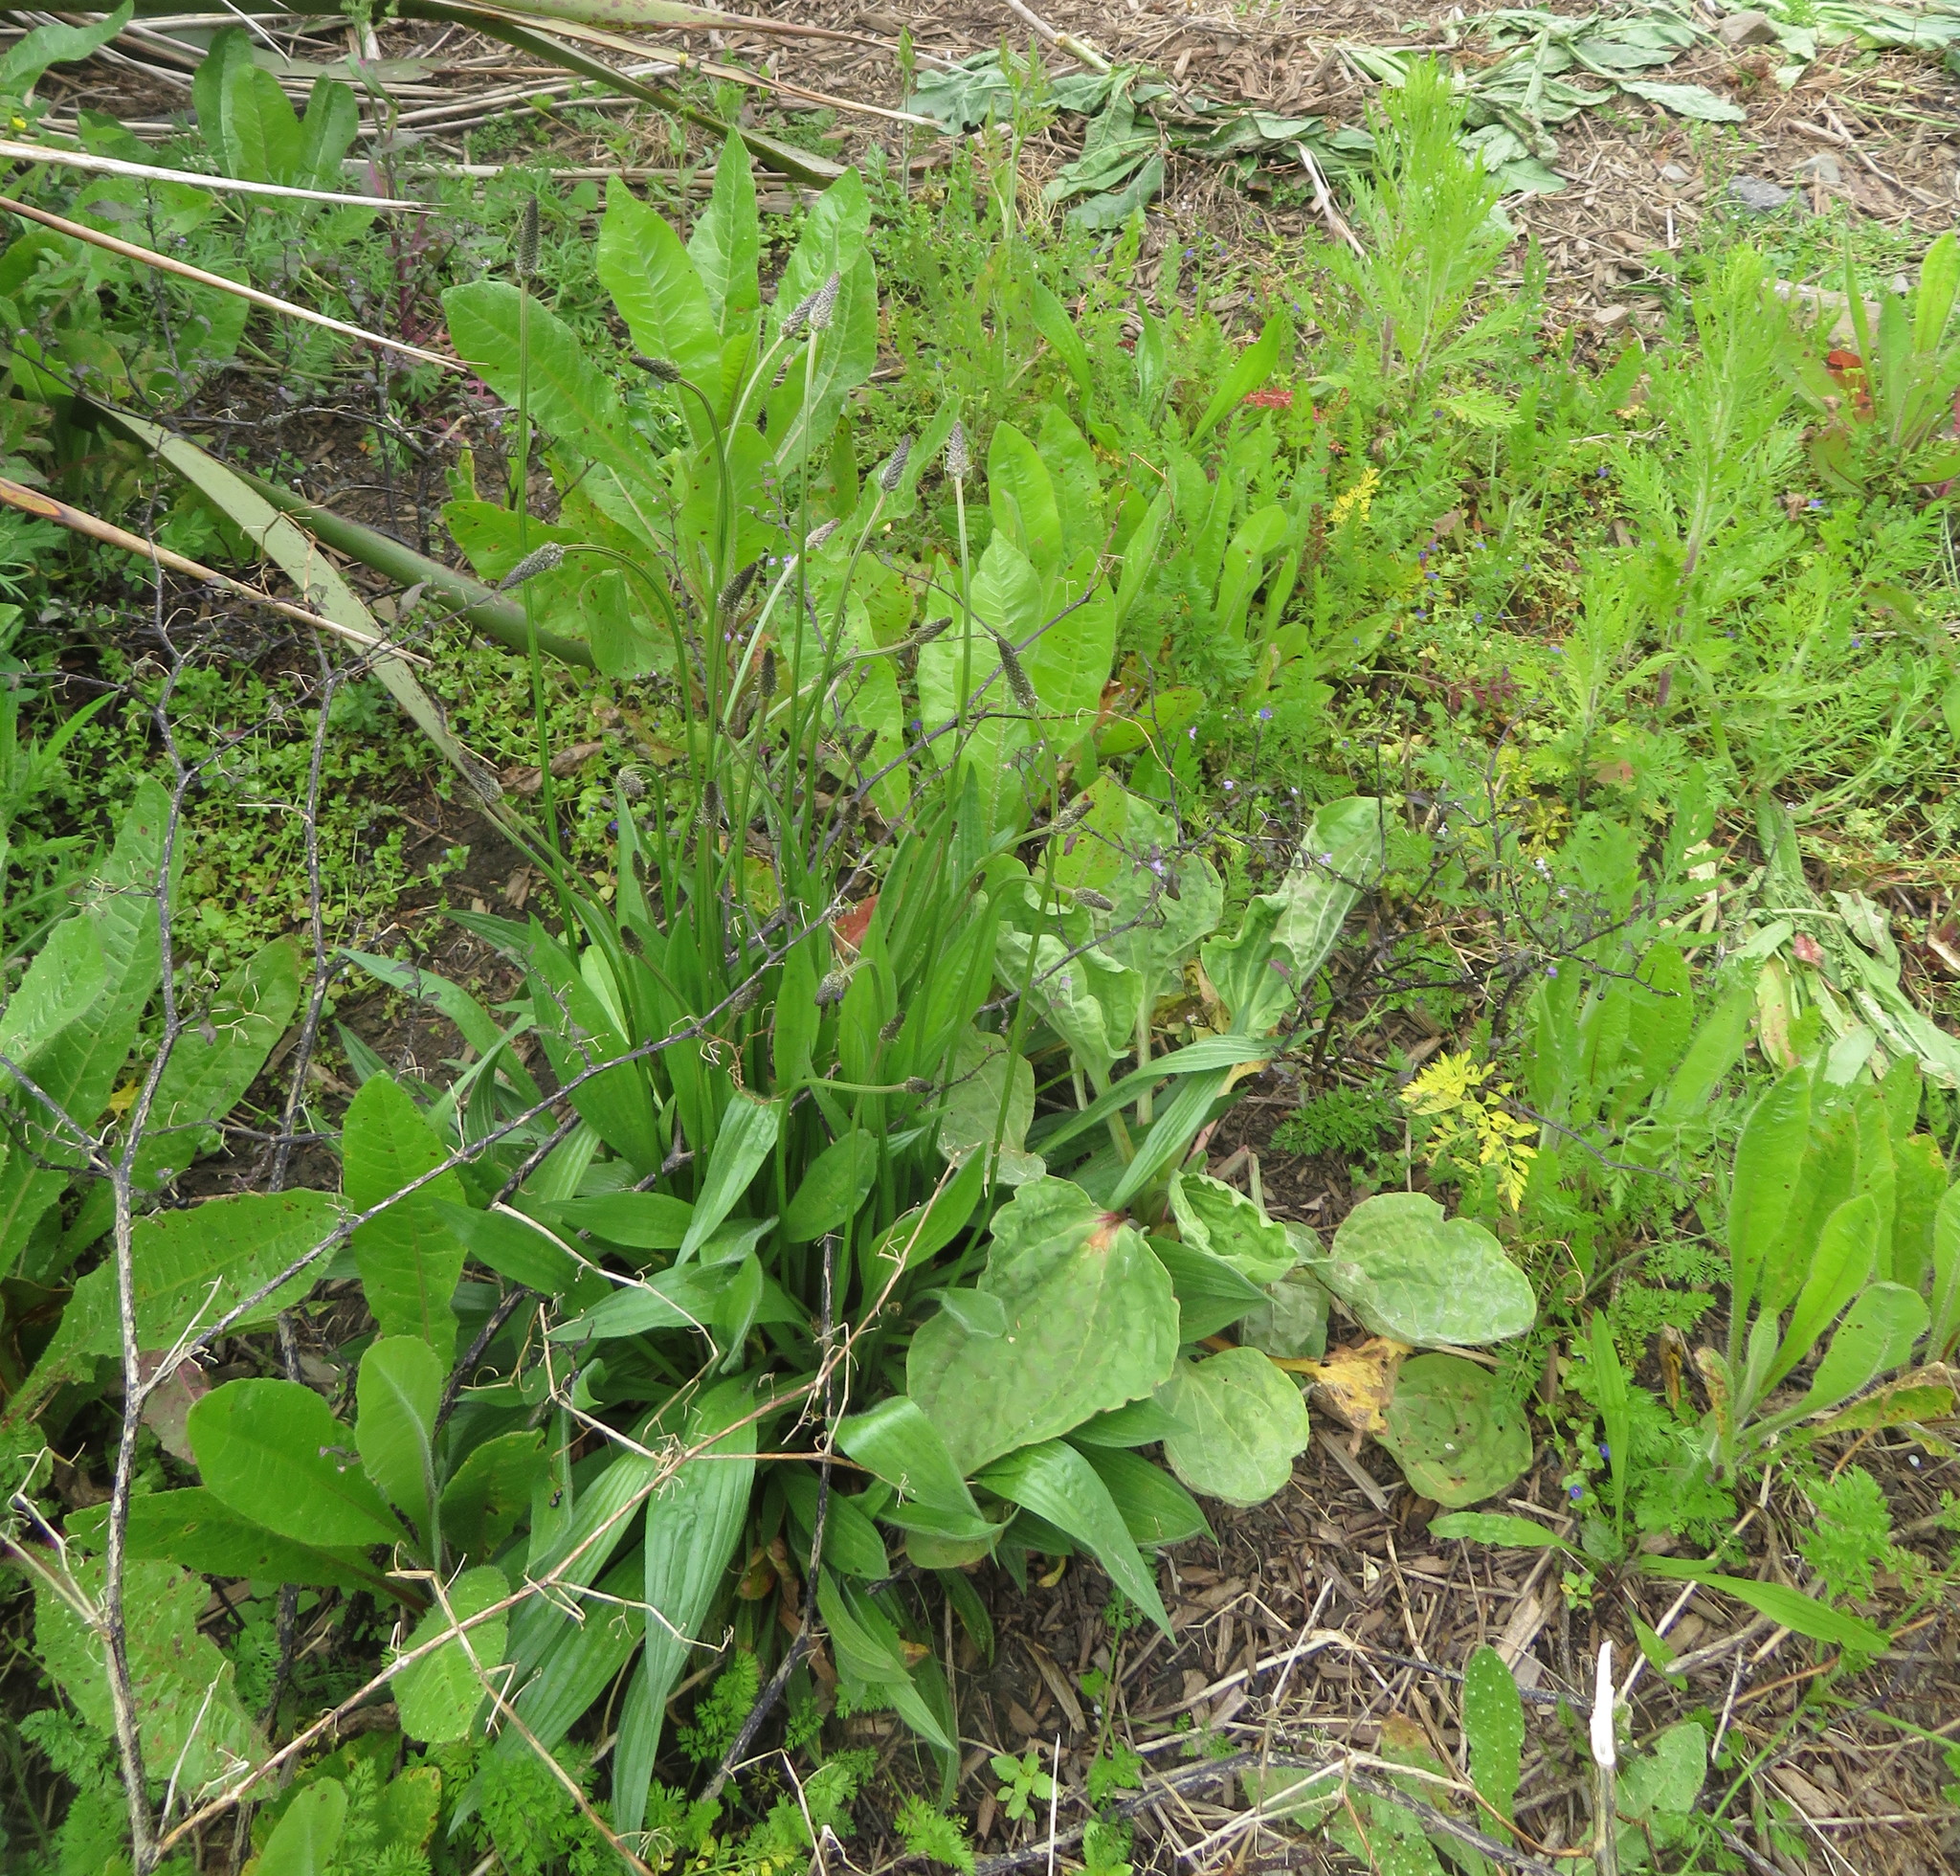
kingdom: Plantae
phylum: Tracheophyta
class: Magnoliopsida
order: Asterales
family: Asteraceae
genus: Senecio
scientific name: Senecio esleri
